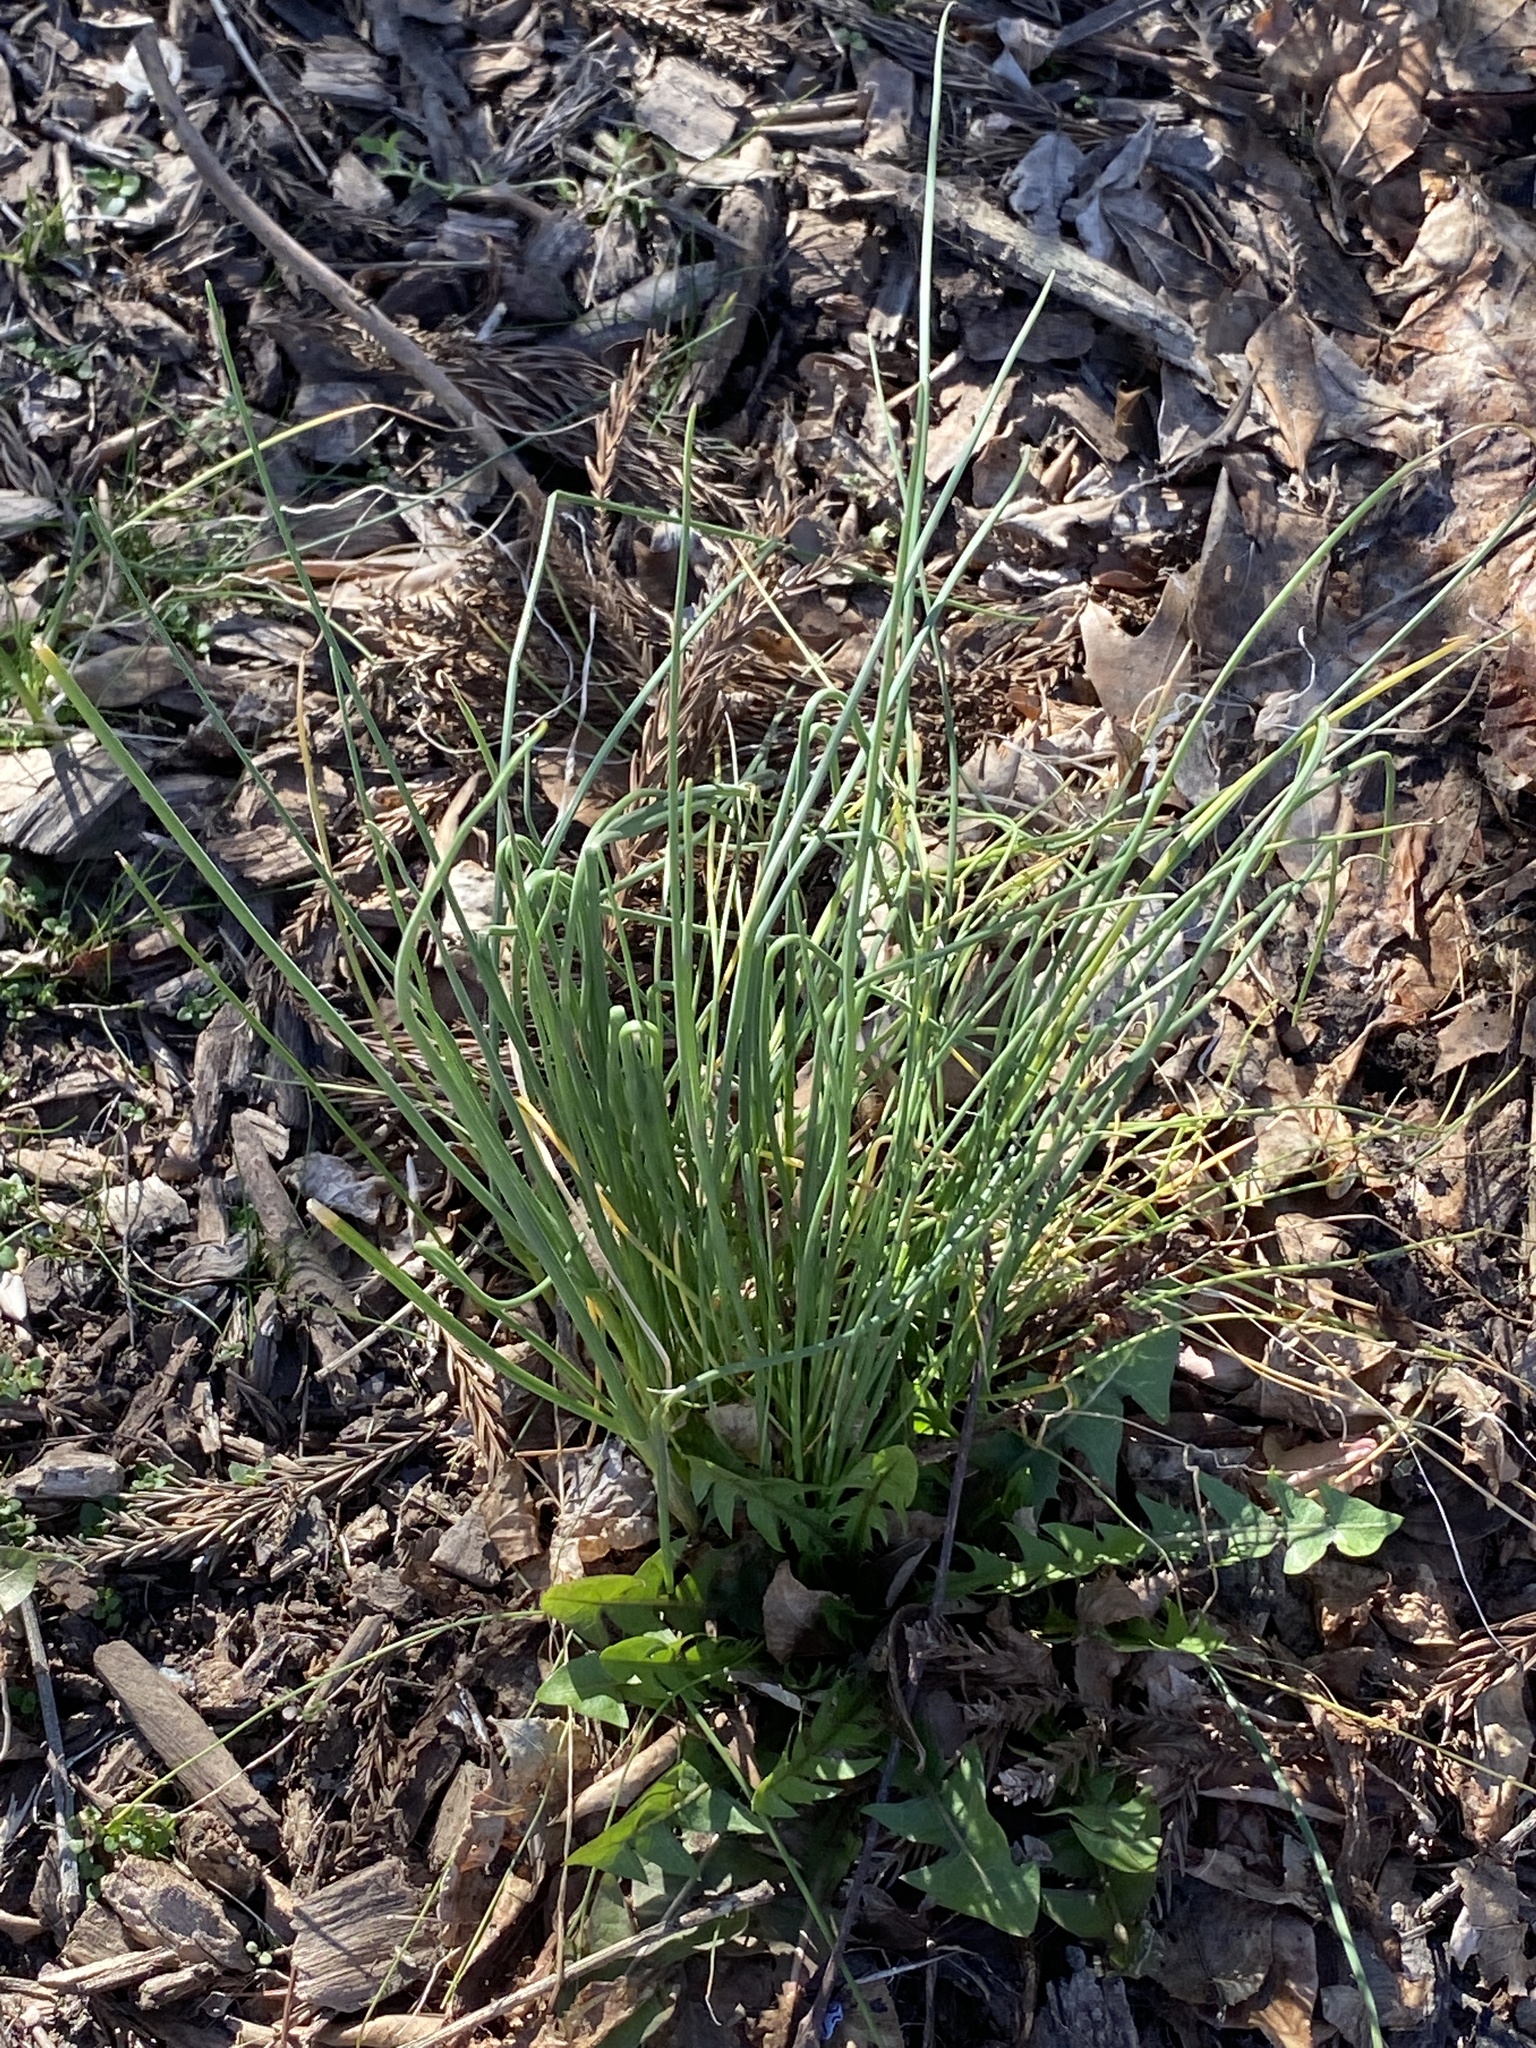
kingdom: Plantae
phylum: Tracheophyta
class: Liliopsida
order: Asparagales
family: Amaryllidaceae
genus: Allium
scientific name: Allium vineale
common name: Crow garlic
